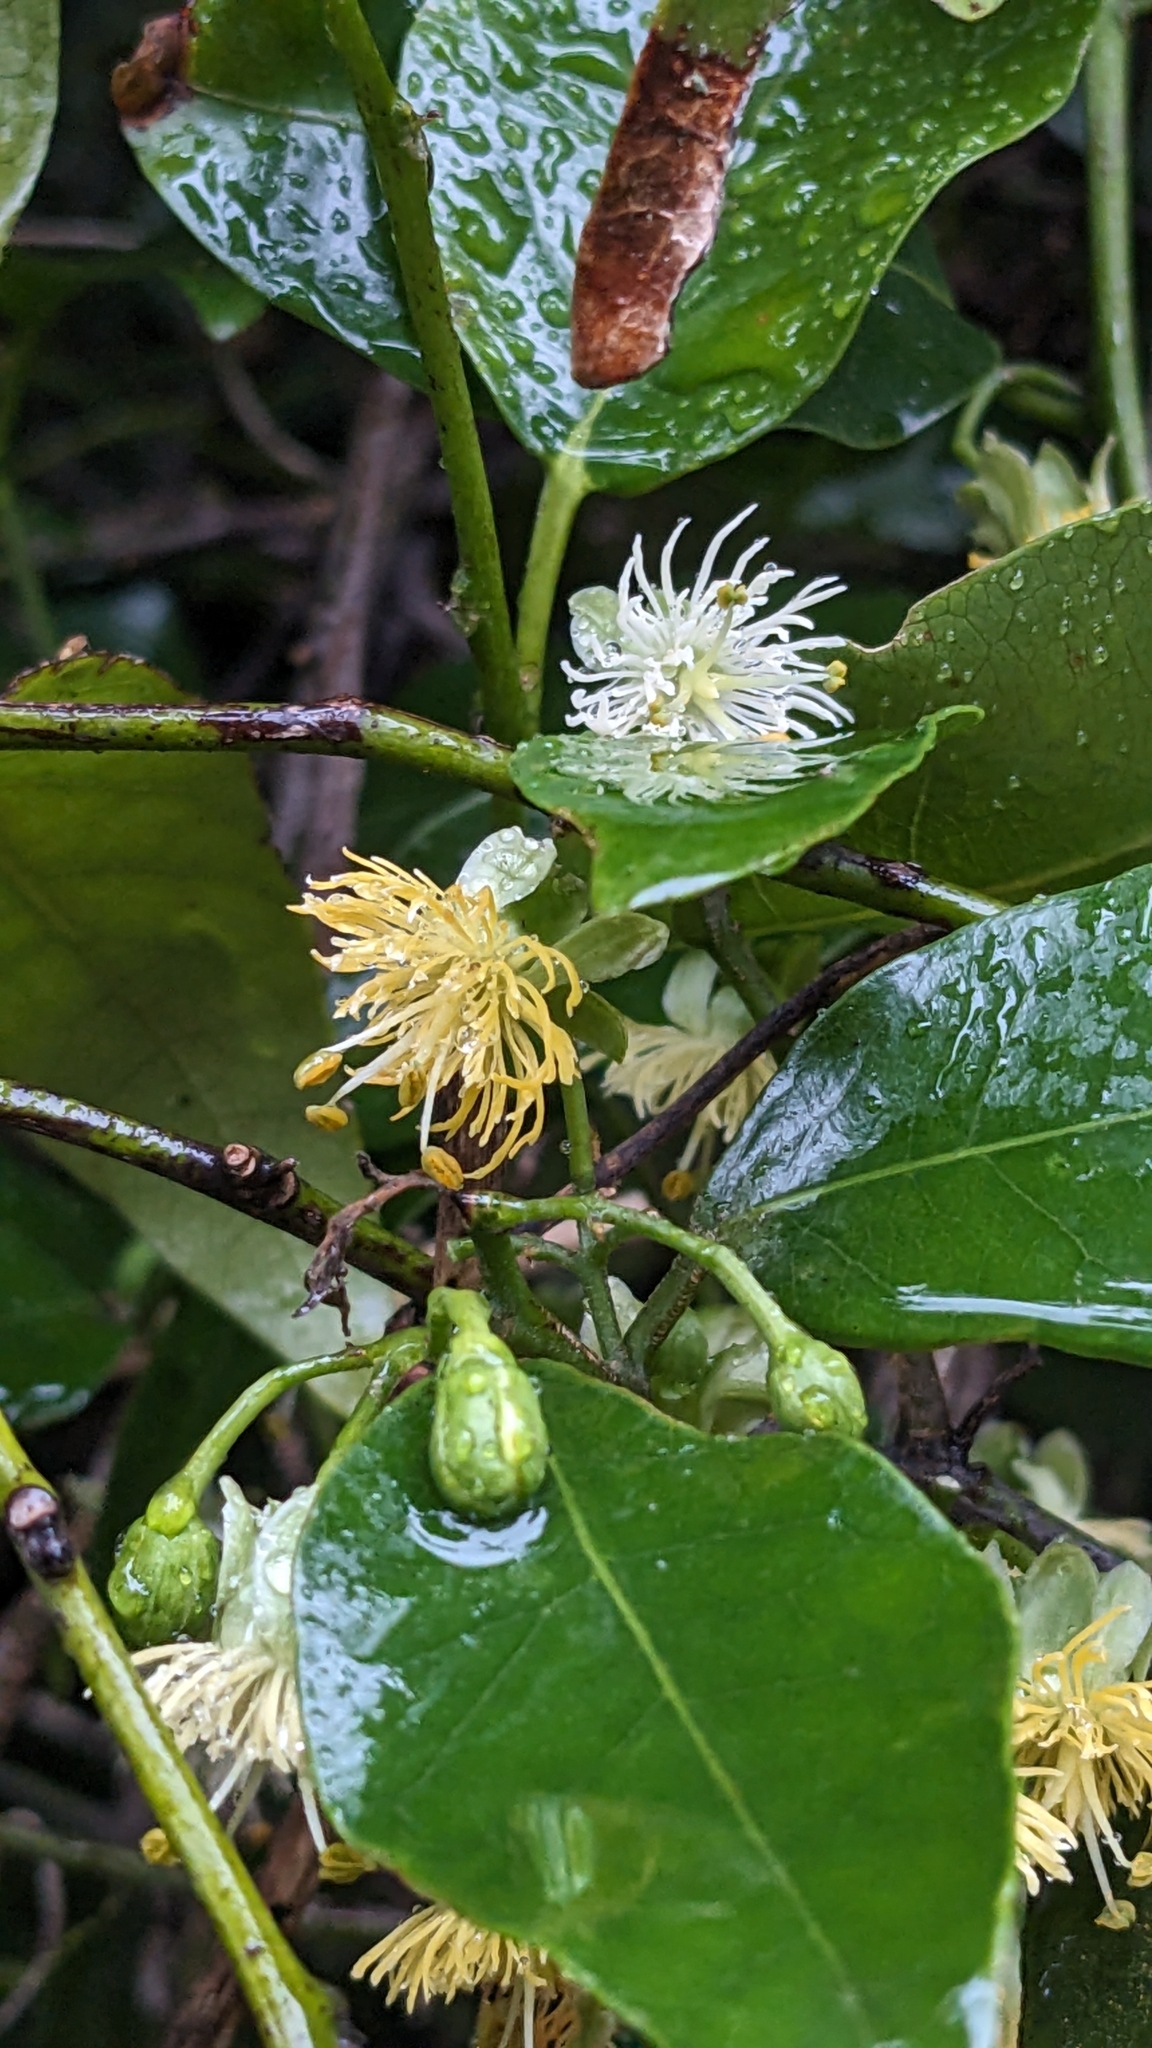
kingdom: Plantae
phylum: Tracheophyta
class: Magnoliopsida
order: Malpighiales
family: Passifloraceae
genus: Passiflora
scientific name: Passiflora tetrandra
